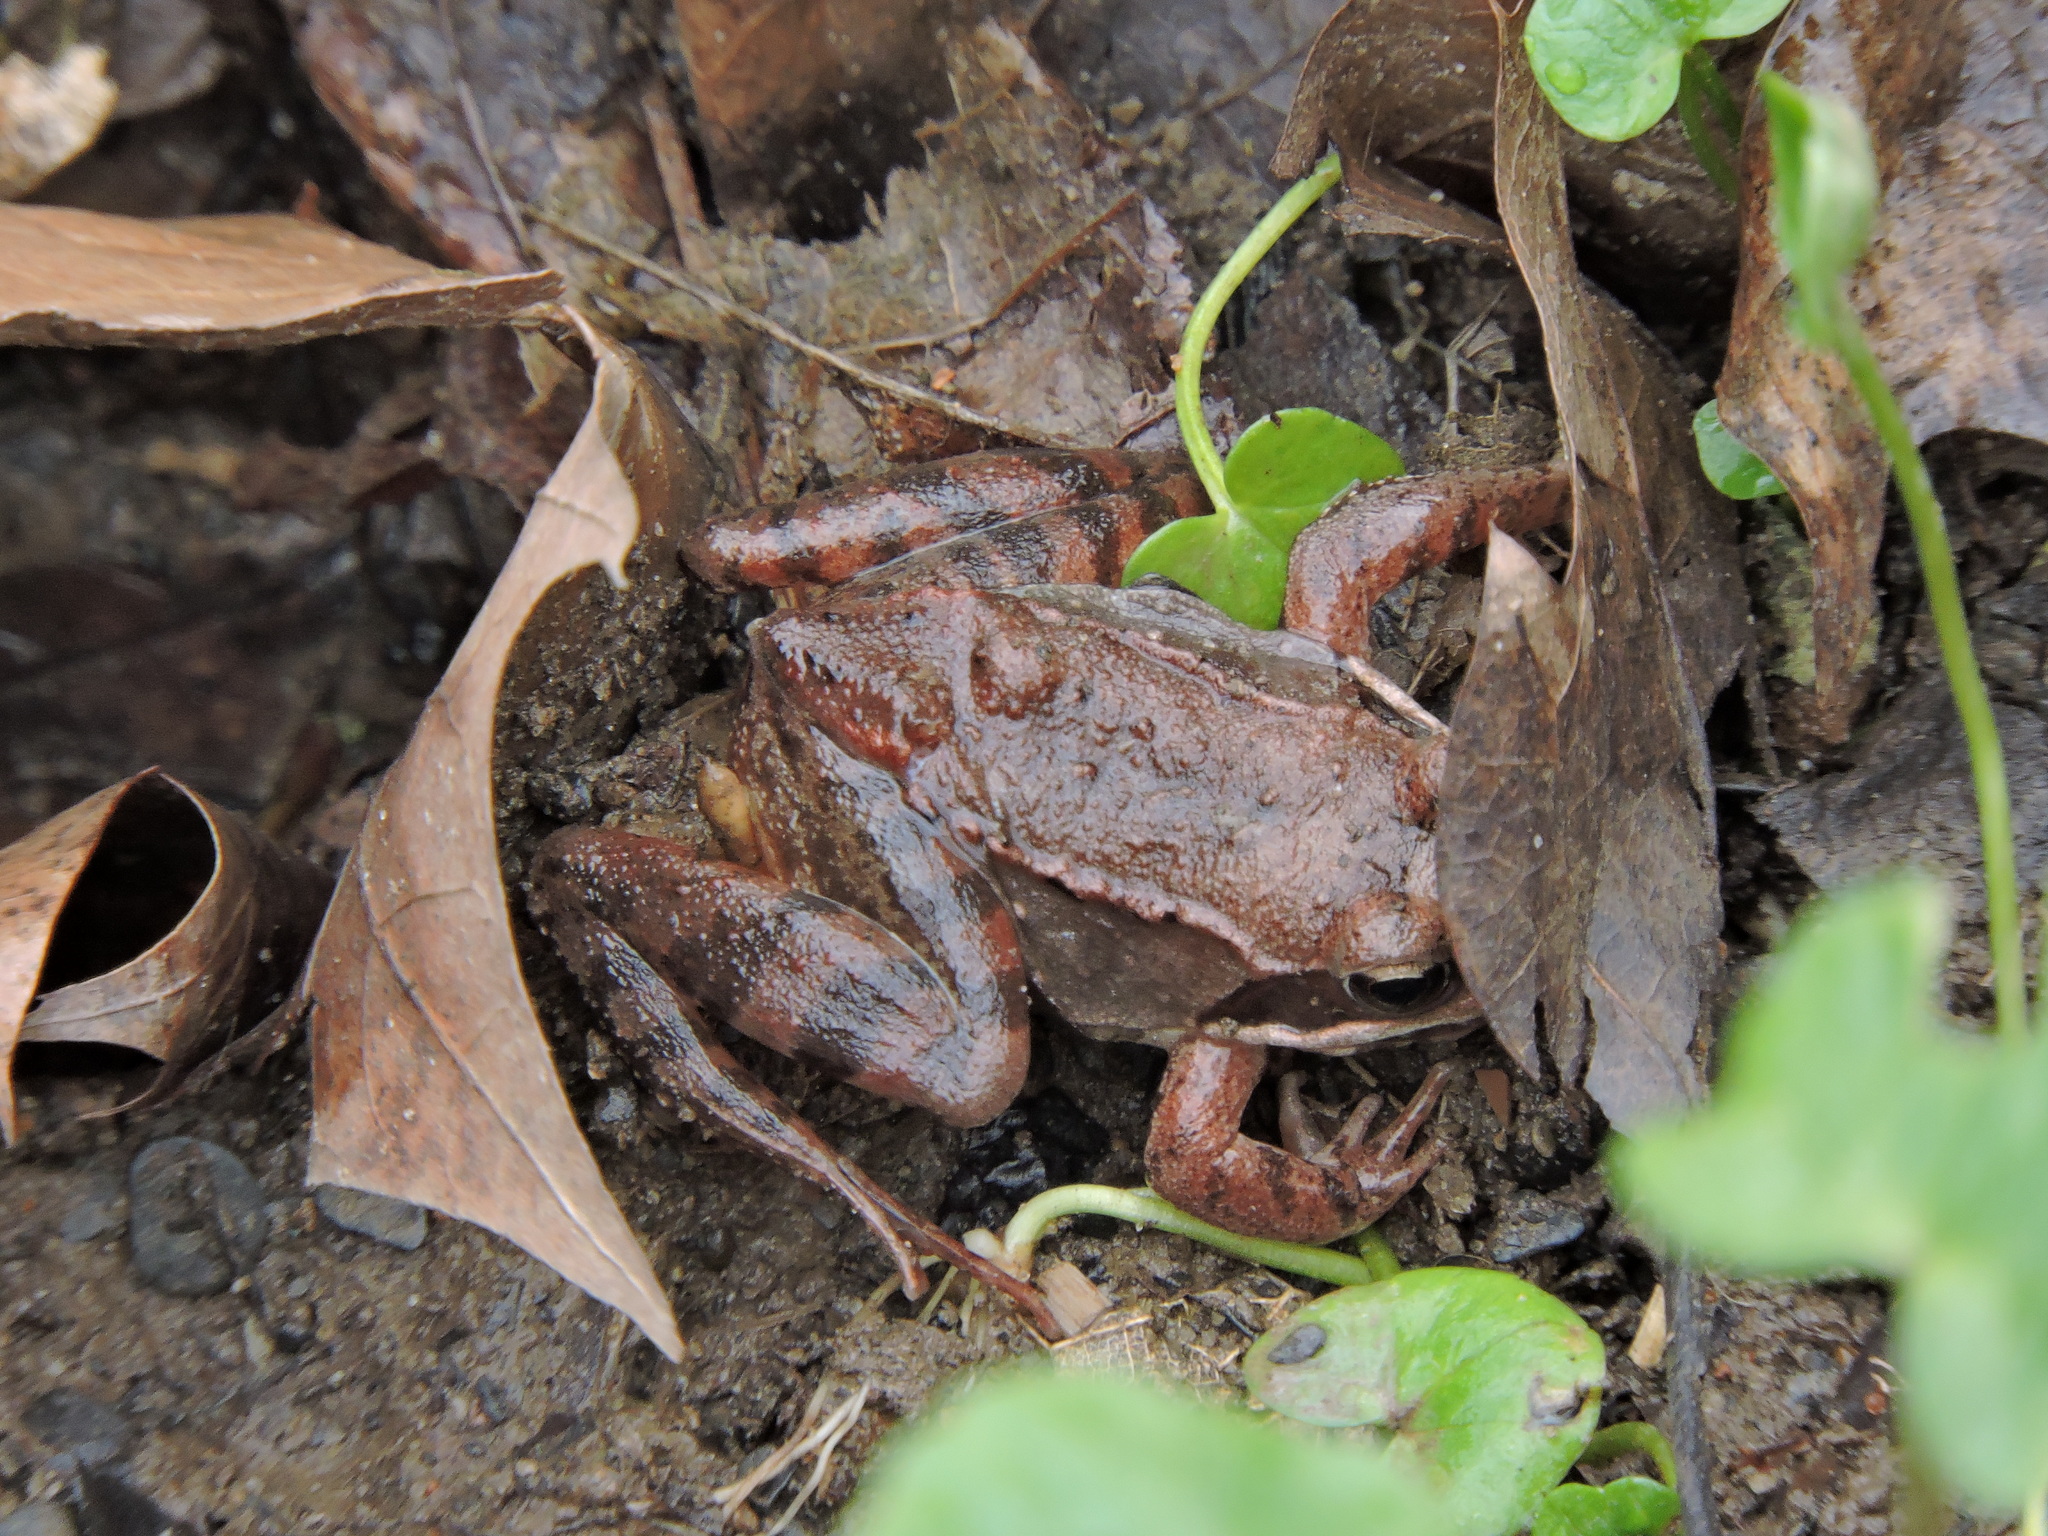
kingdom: Animalia
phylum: Chordata
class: Amphibia
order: Anura
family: Ranidae
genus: Lithobates
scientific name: Lithobates sylvaticus
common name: Wood frog
